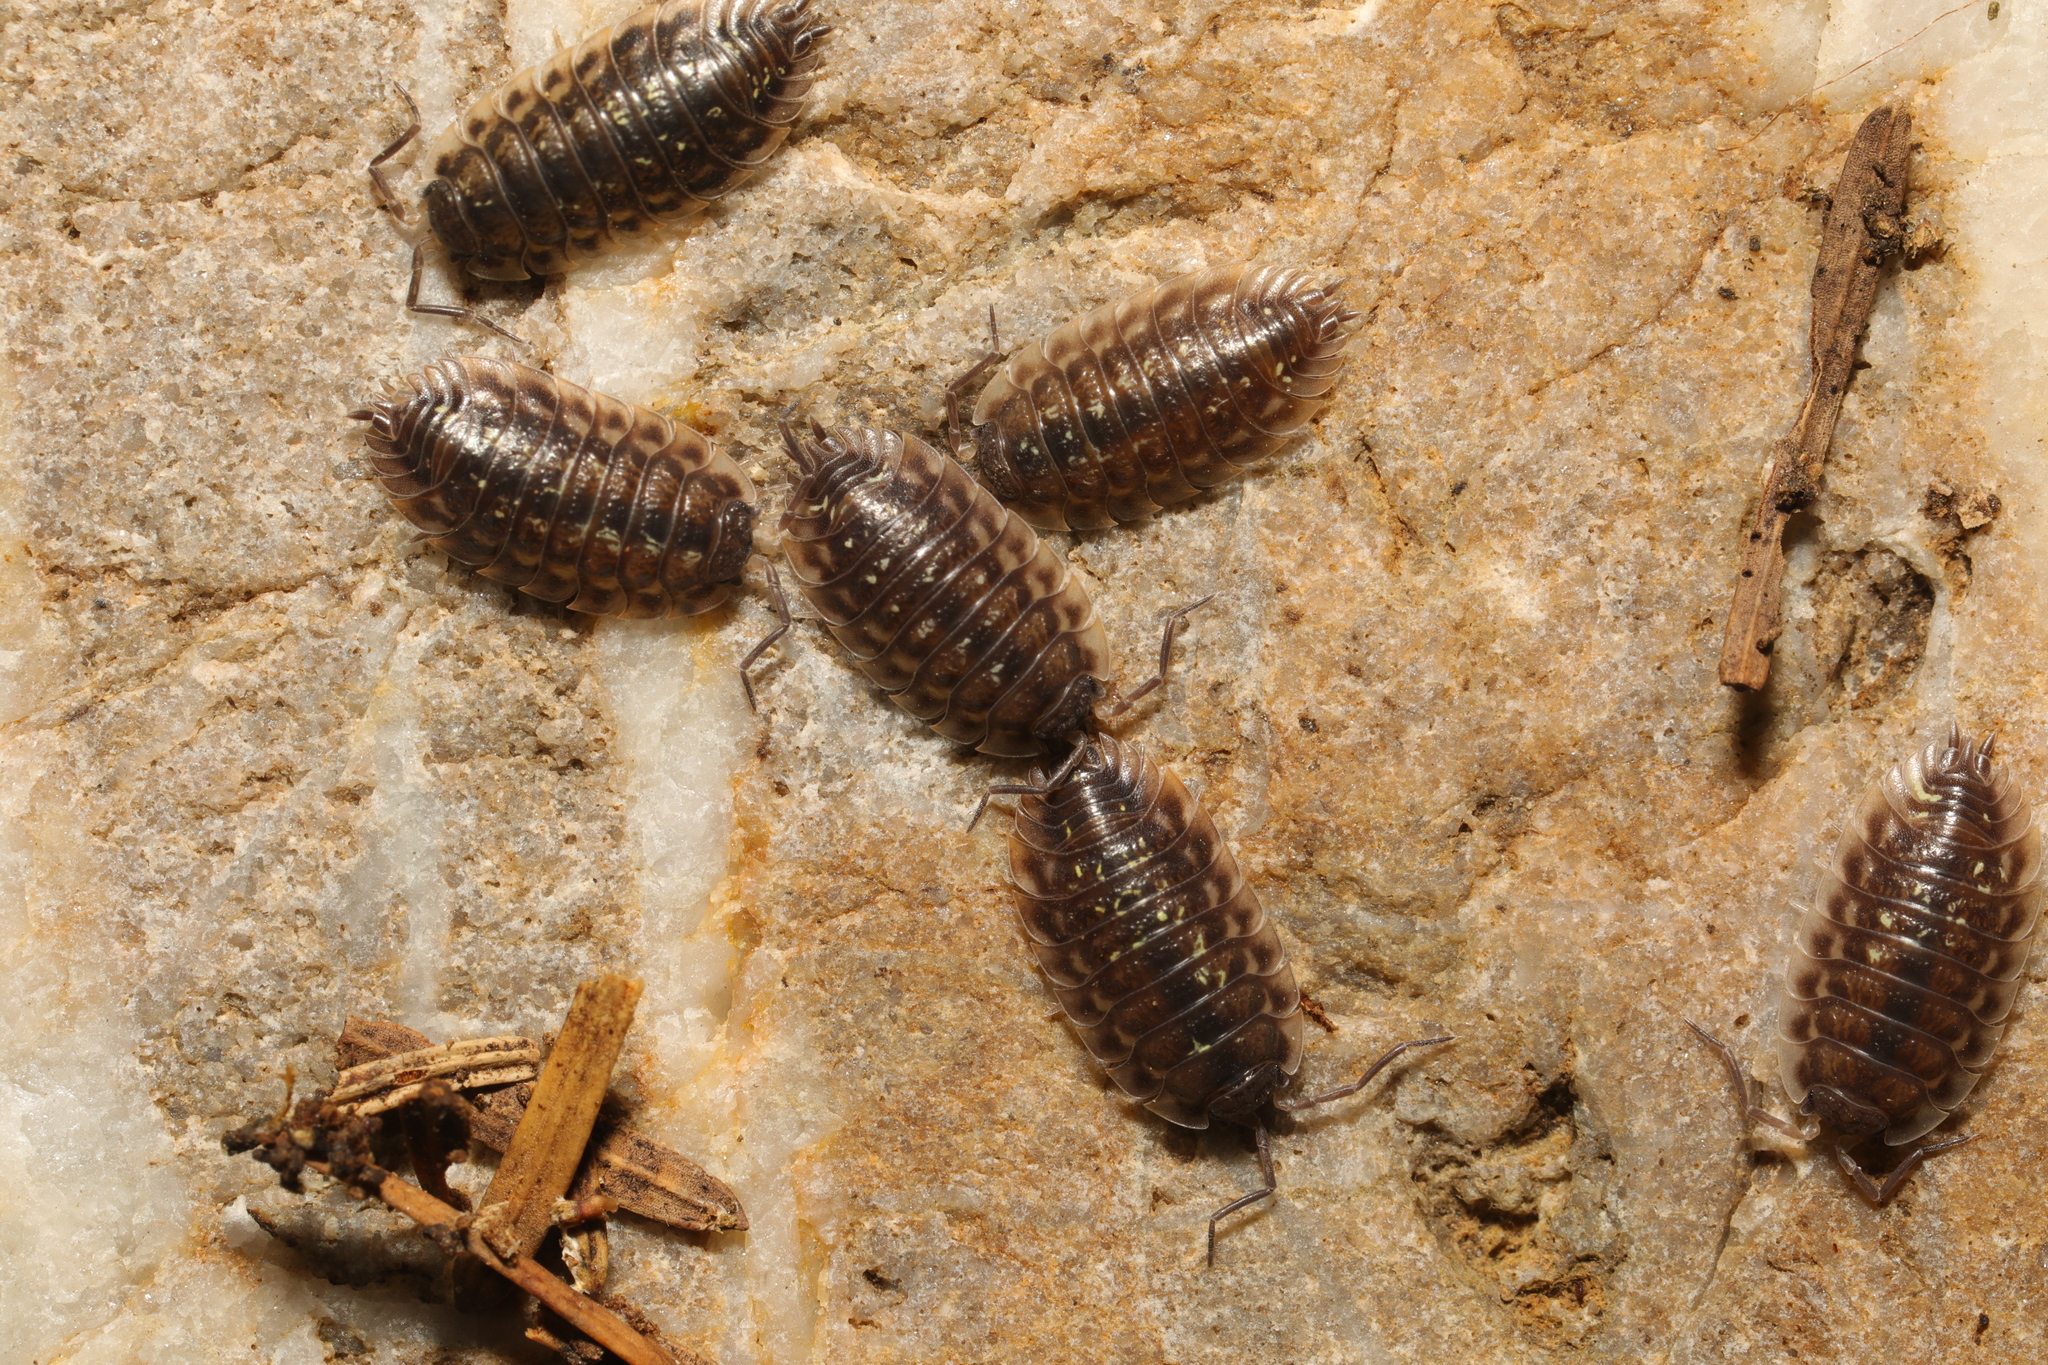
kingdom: Animalia
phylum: Arthropoda
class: Malacostraca
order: Isopoda
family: Oniscidae
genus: Oniscus
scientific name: Oniscus asellus
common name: Common shiny woodlouse
